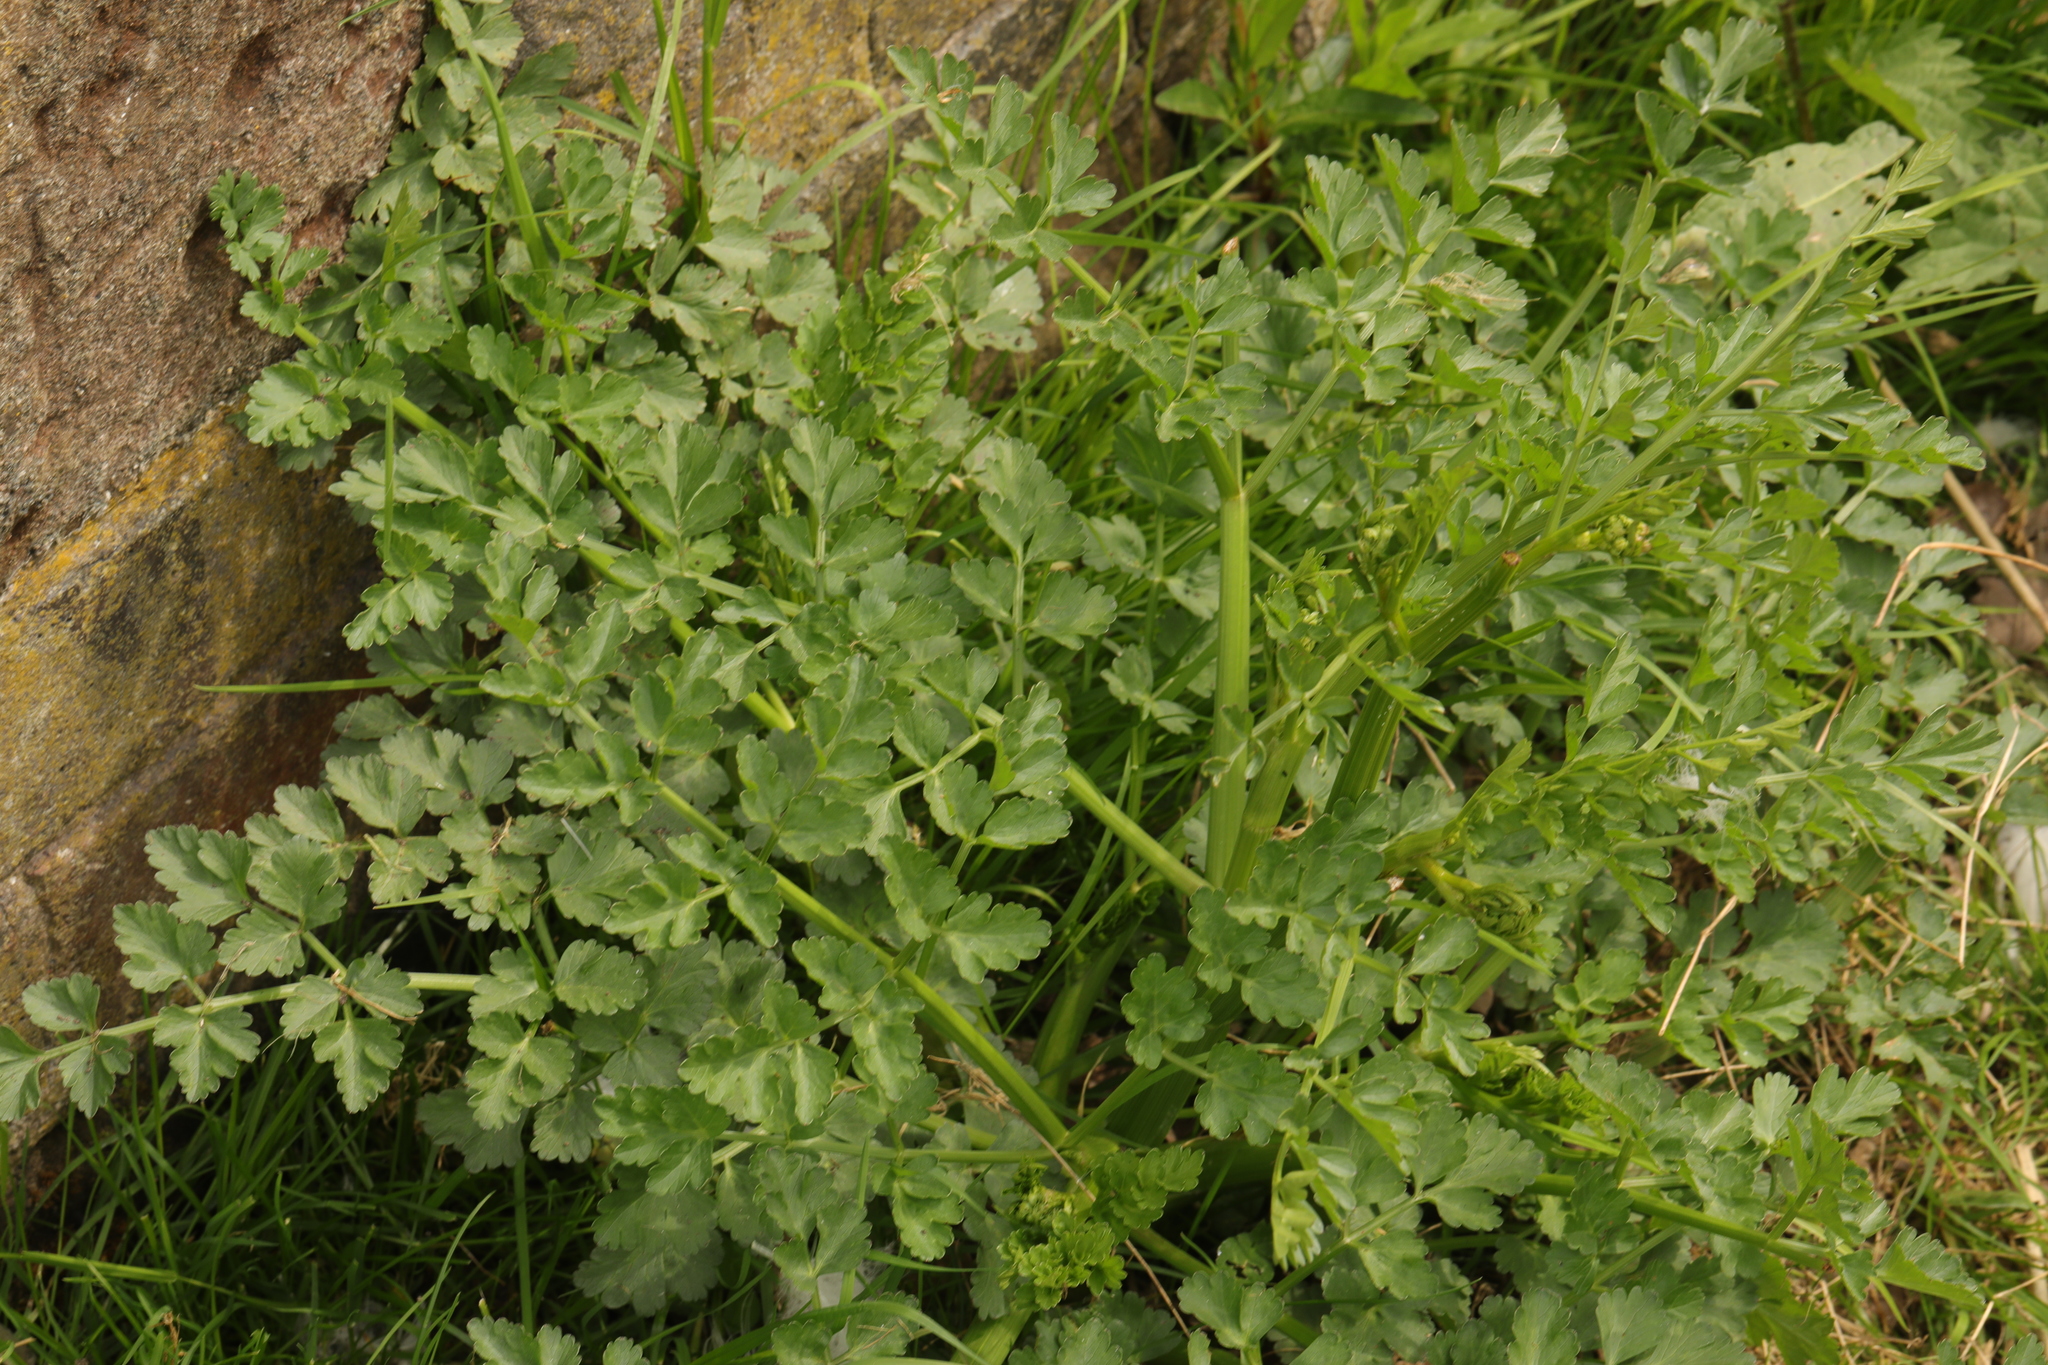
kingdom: Plantae
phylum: Tracheophyta
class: Magnoliopsida
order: Apiales
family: Apiaceae
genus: Oenanthe
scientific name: Oenanthe crocata
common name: Hemlock water-dropwort
